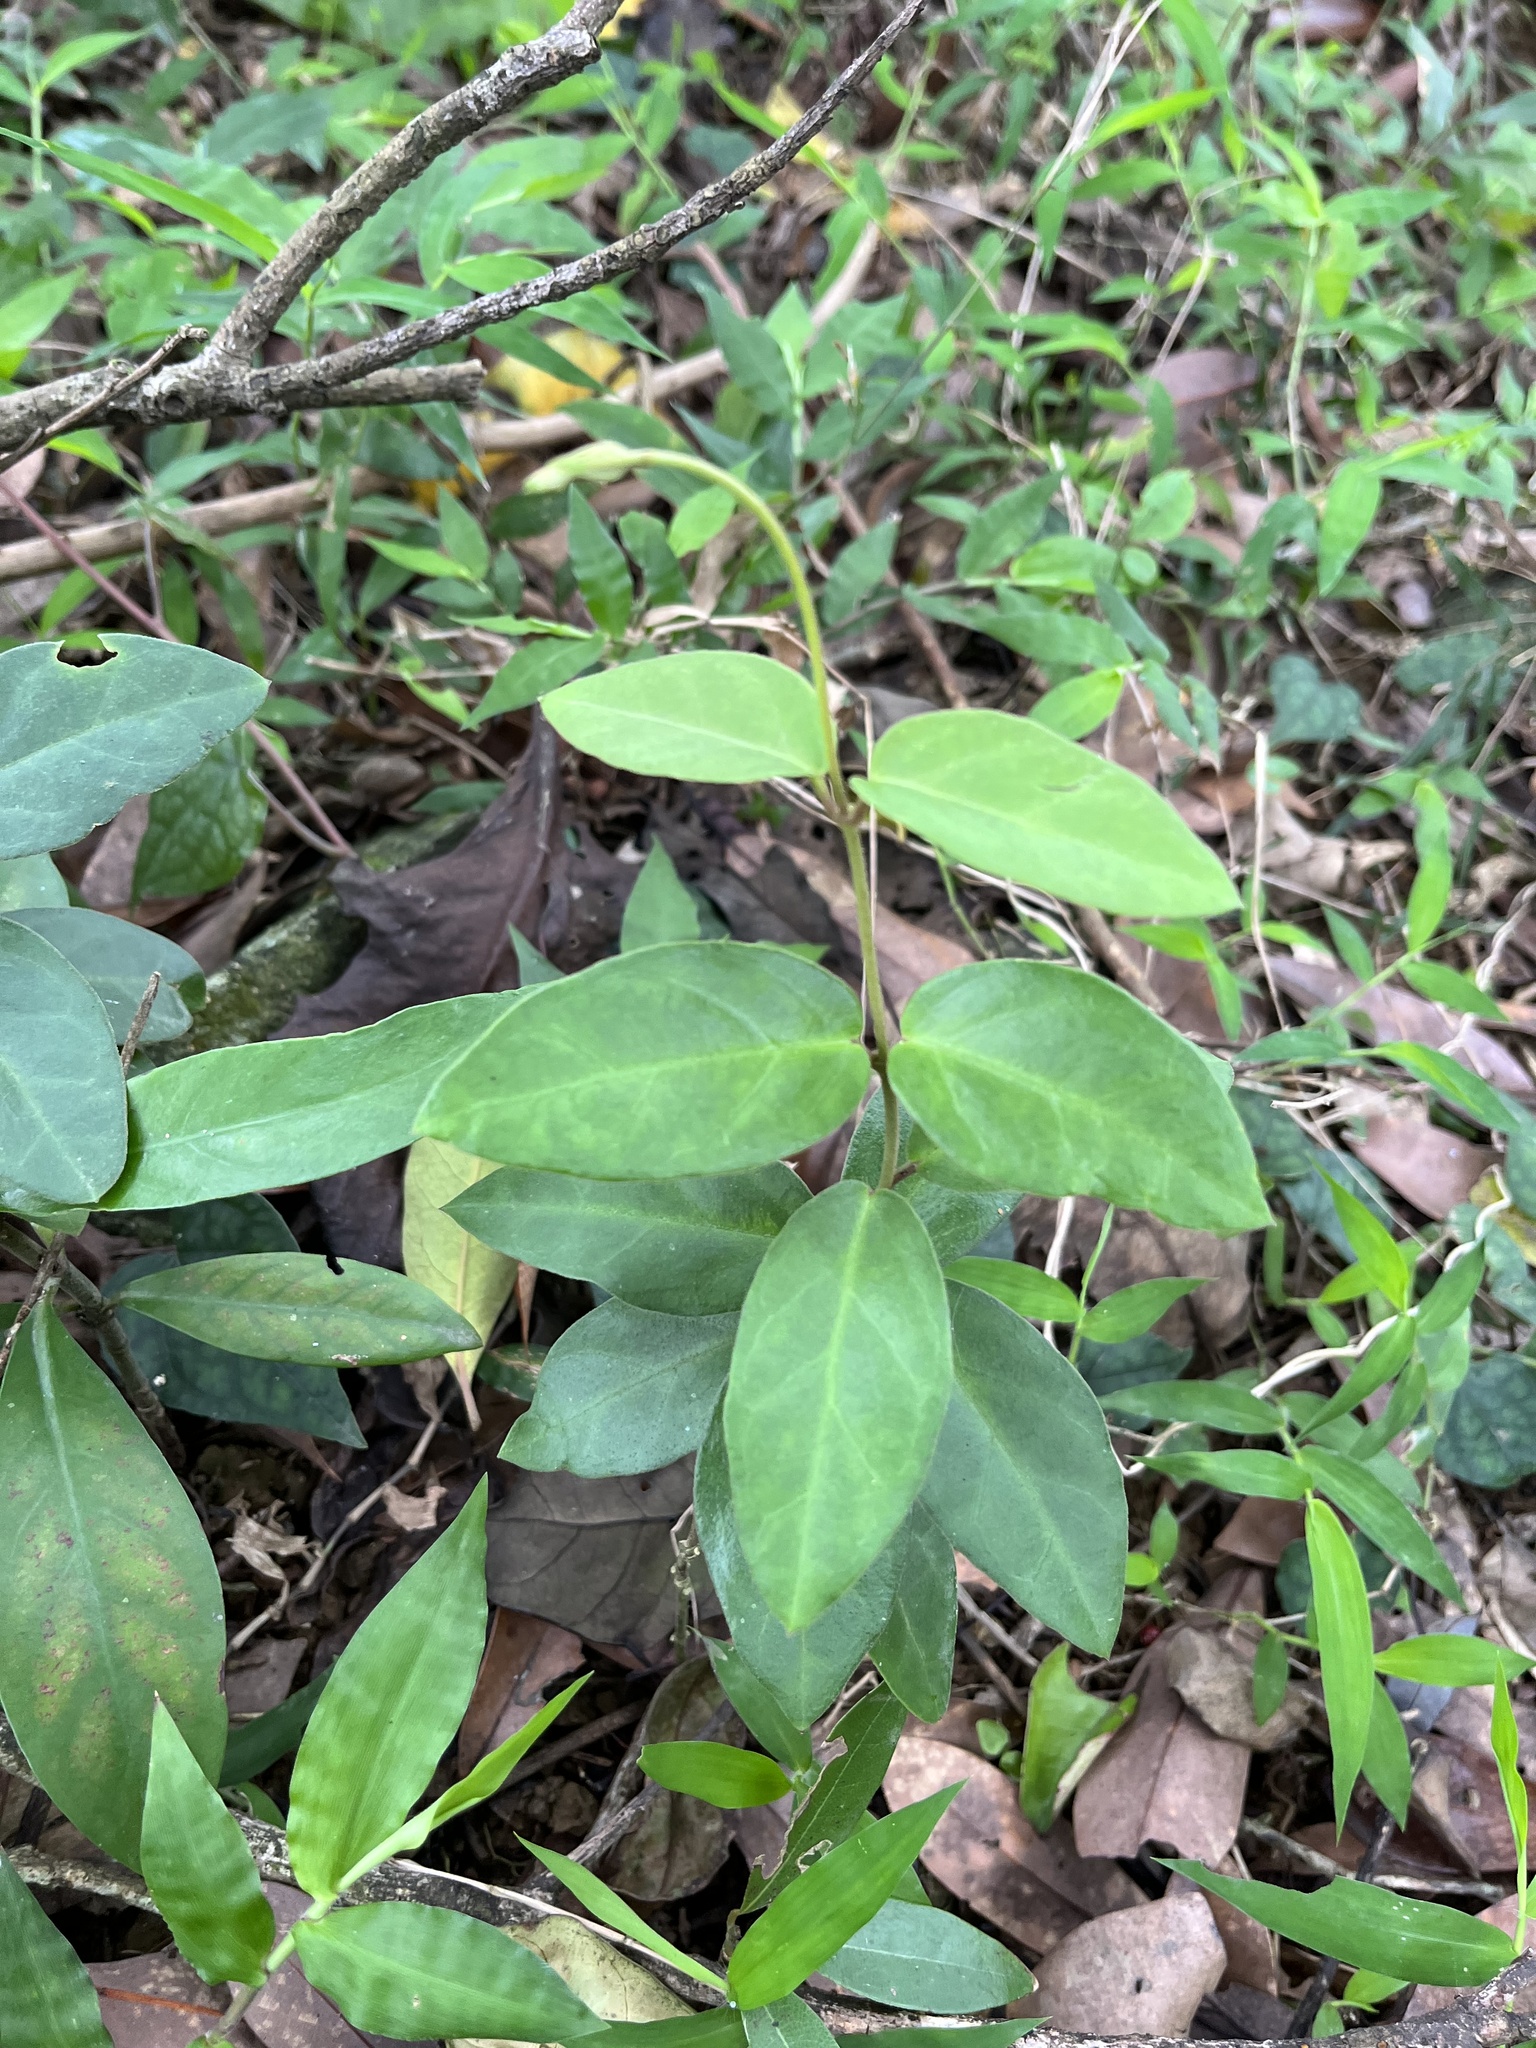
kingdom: Plantae
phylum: Tracheophyta
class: Magnoliopsida
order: Gentianales
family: Apocynaceae
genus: Vincetoxicum
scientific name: Vincetoxicum hirsutum
